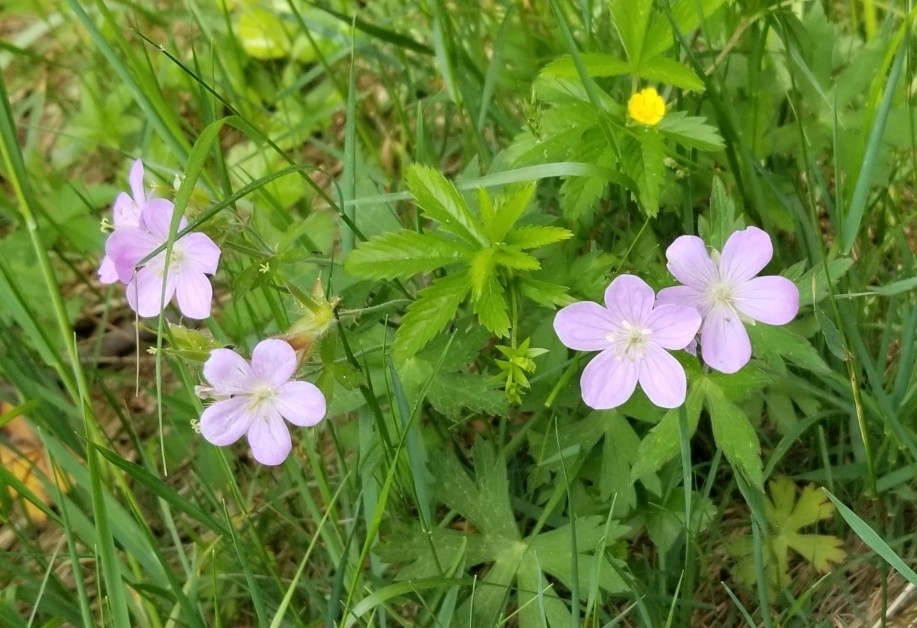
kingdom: Plantae
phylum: Tracheophyta
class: Magnoliopsida
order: Geraniales
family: Geraniaceae
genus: Geranium
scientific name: Geranium maculatum
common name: Spotted geranium
